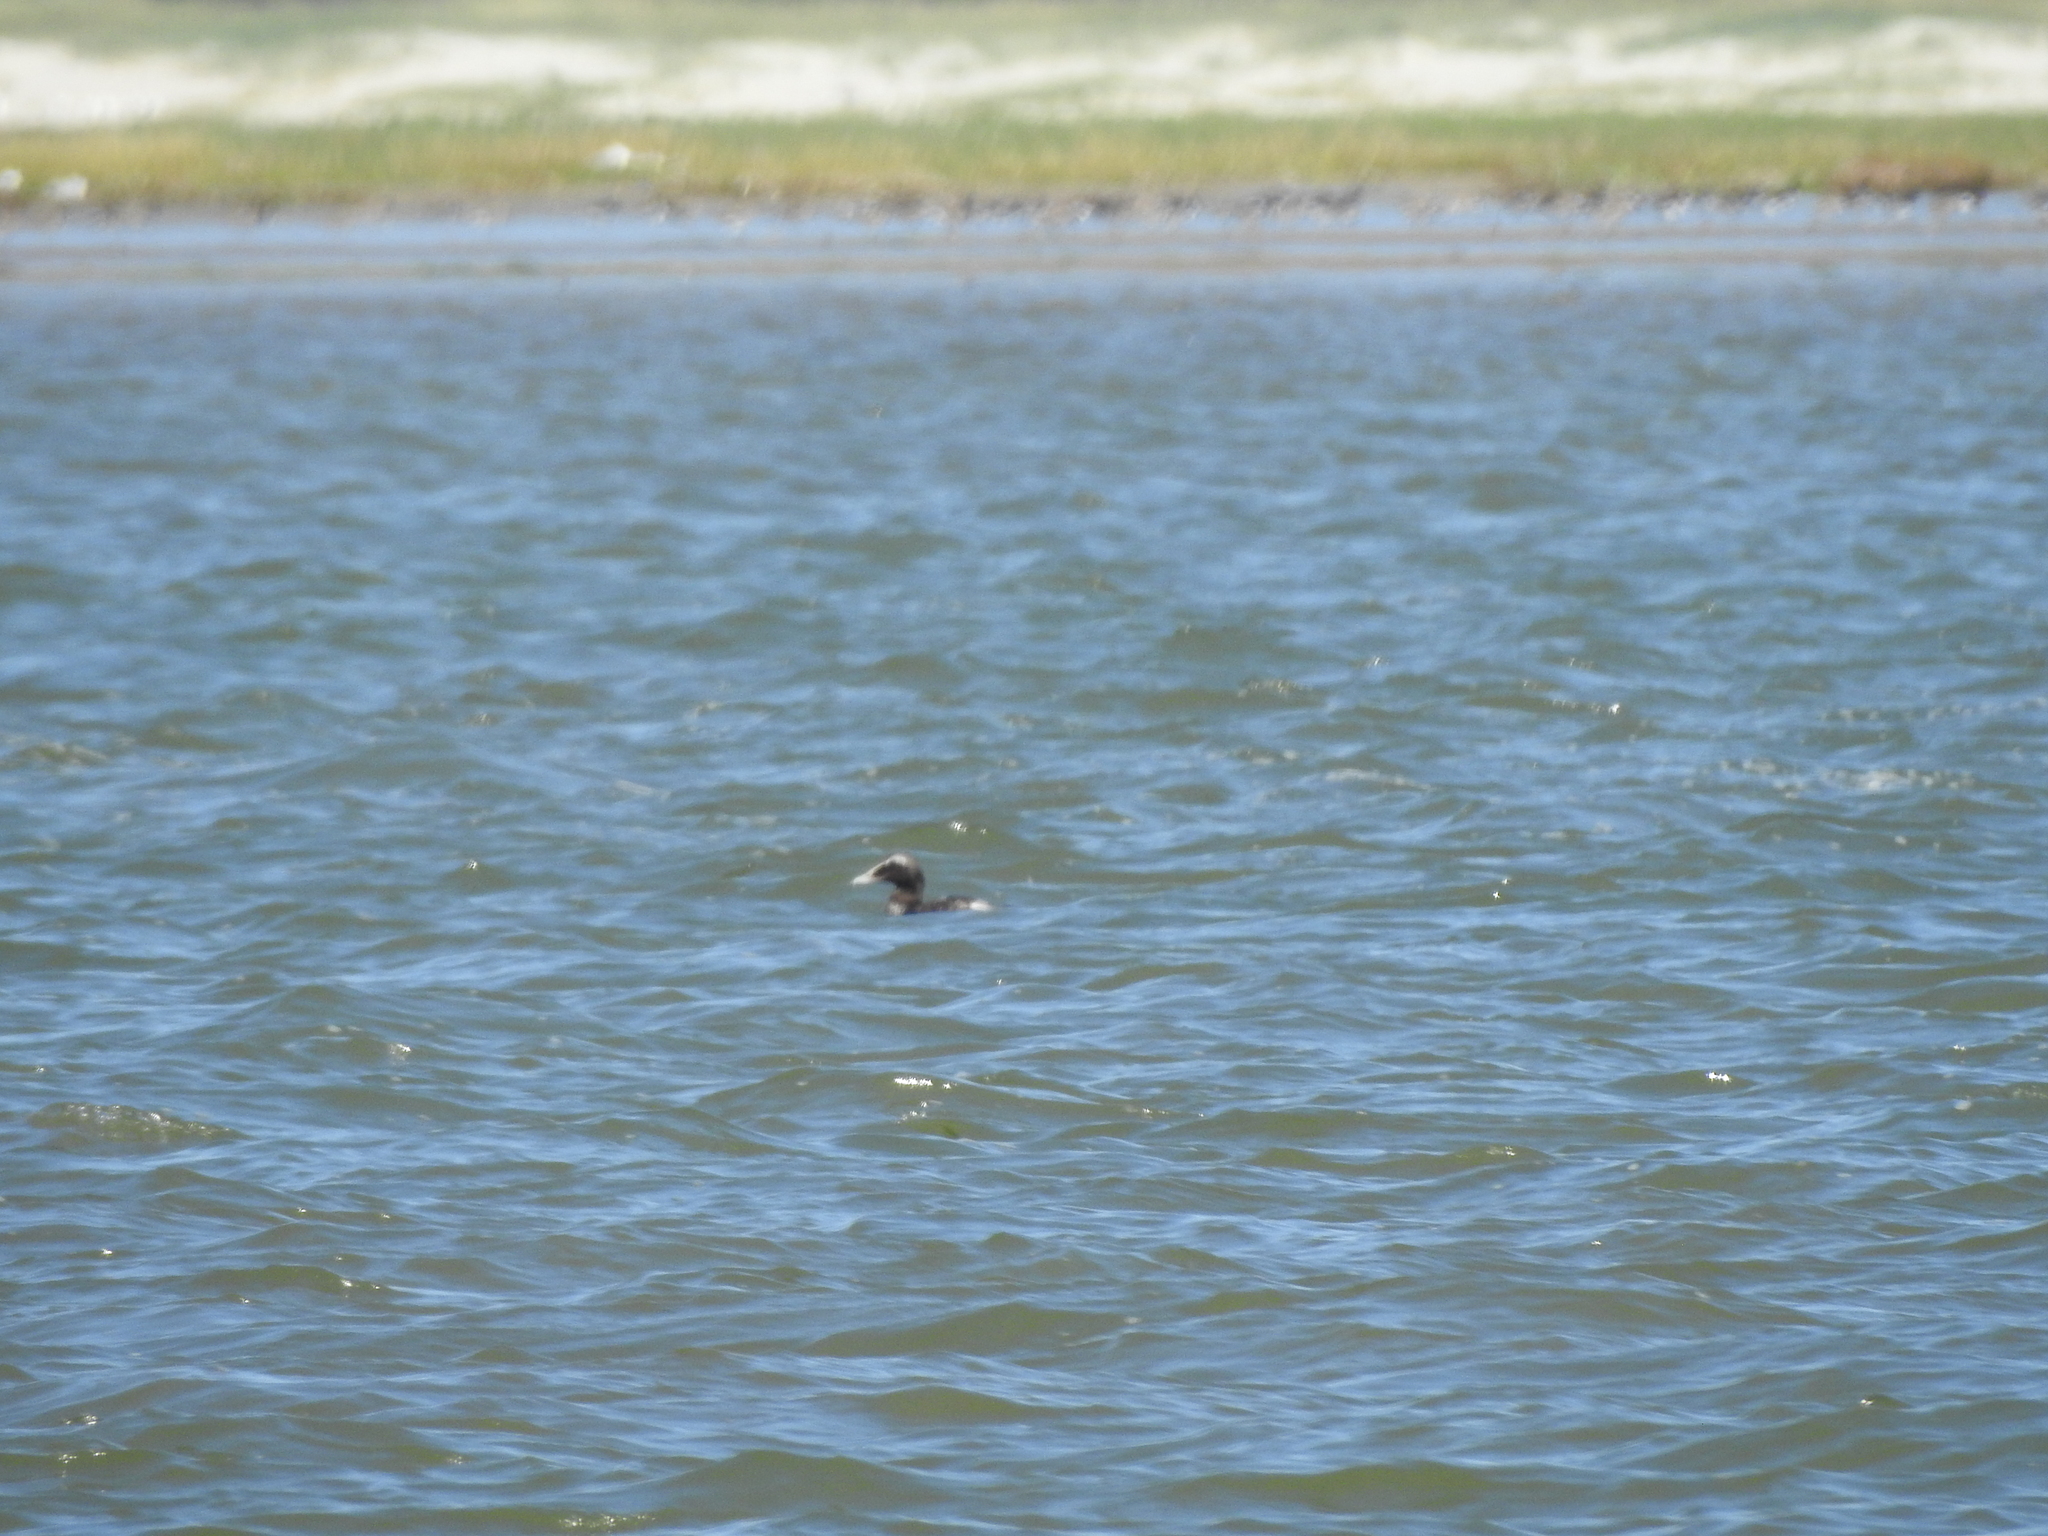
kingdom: Animalia
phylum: Chordata
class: Aves
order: Anseriformes
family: Anatidae
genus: Somateria
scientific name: Somateria mollissima
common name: Common eider
